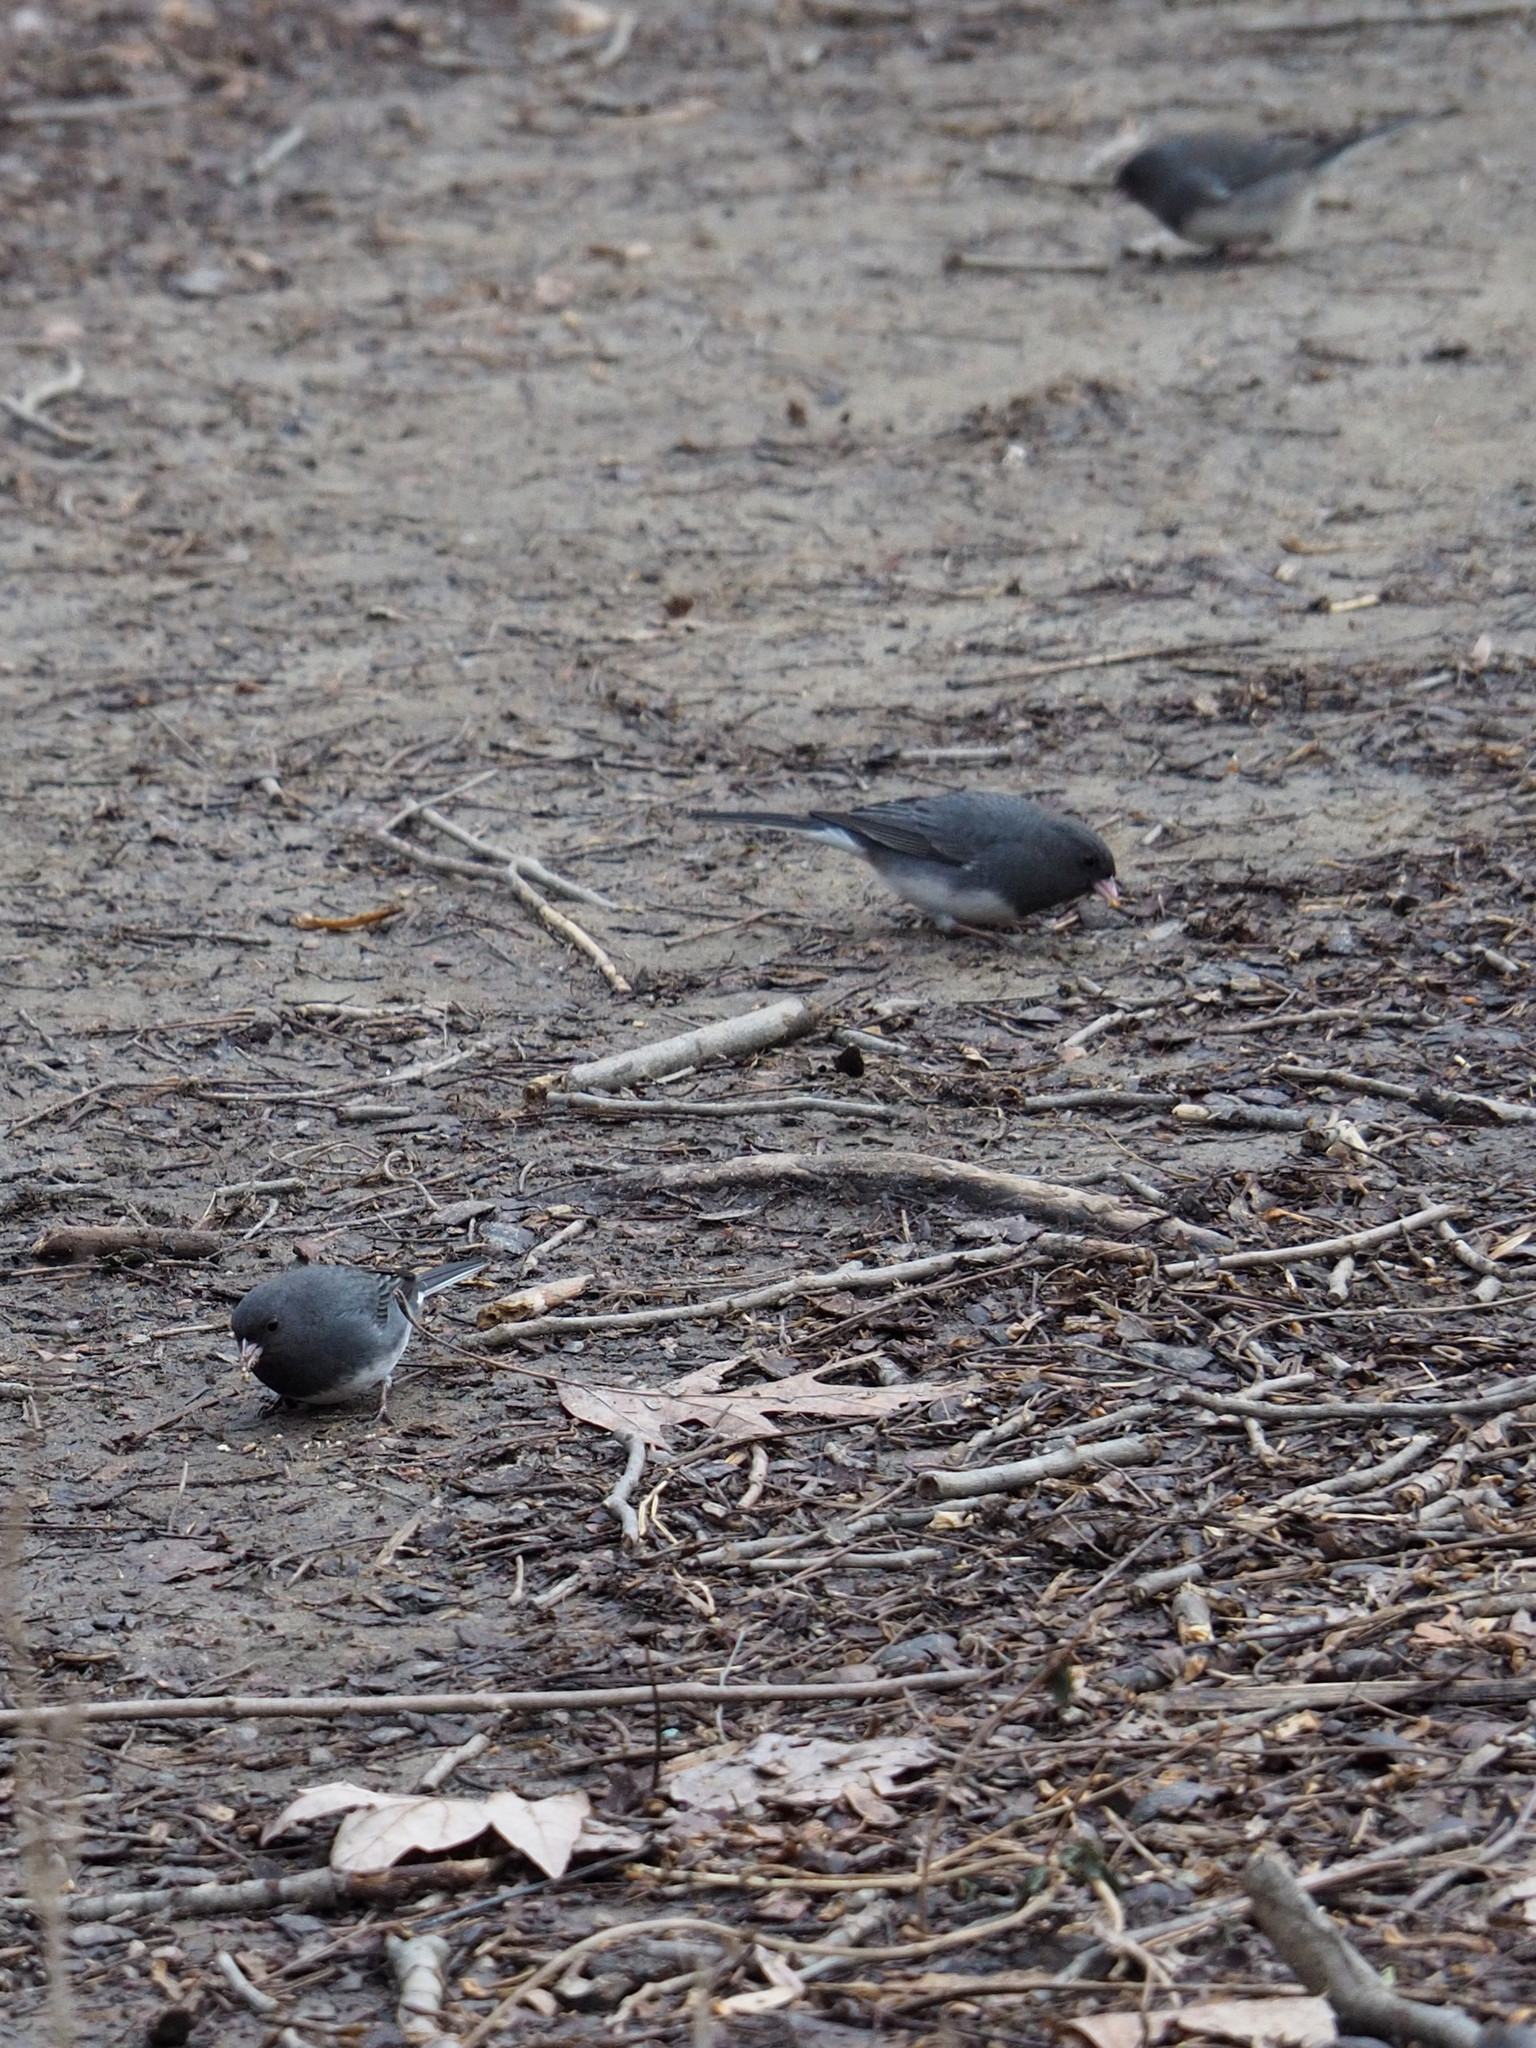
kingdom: Animalia
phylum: Chordata
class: Aves
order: Passeriformes
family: Passerellidae
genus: Junco
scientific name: Junco hyemalis
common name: Dark-eyed junco
